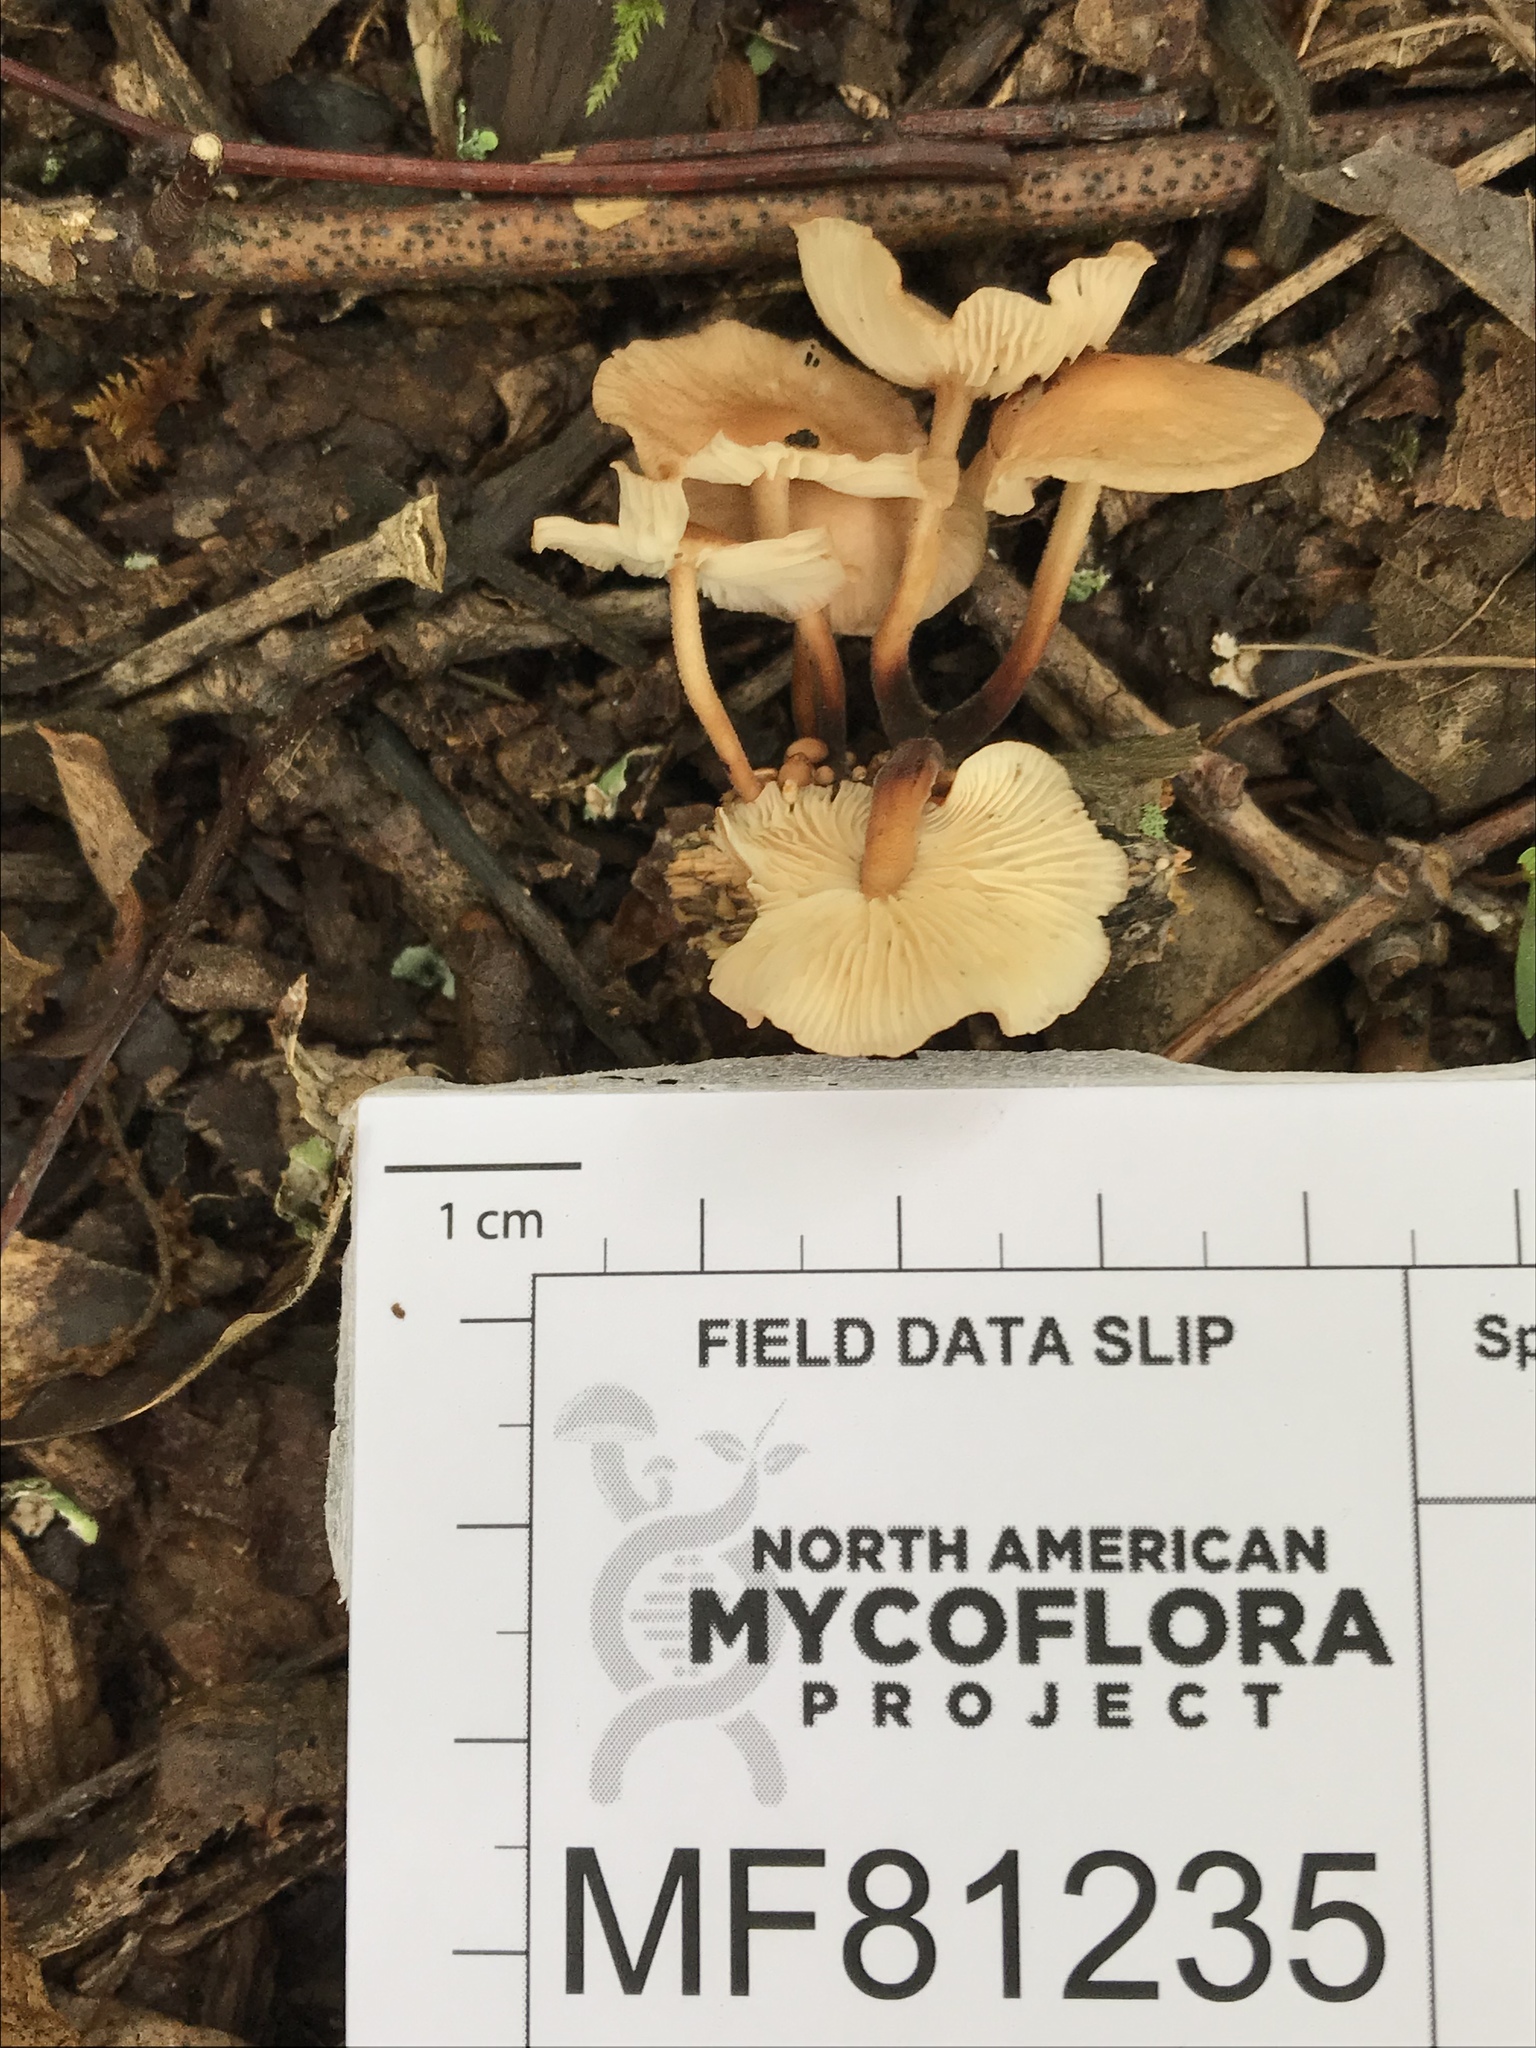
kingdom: Fungi
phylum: Basidiomycota
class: Agaricomycetes
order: Agaricales
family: Omphalotaceae
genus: Collybiopsis
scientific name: Collybiopsis subnuda
